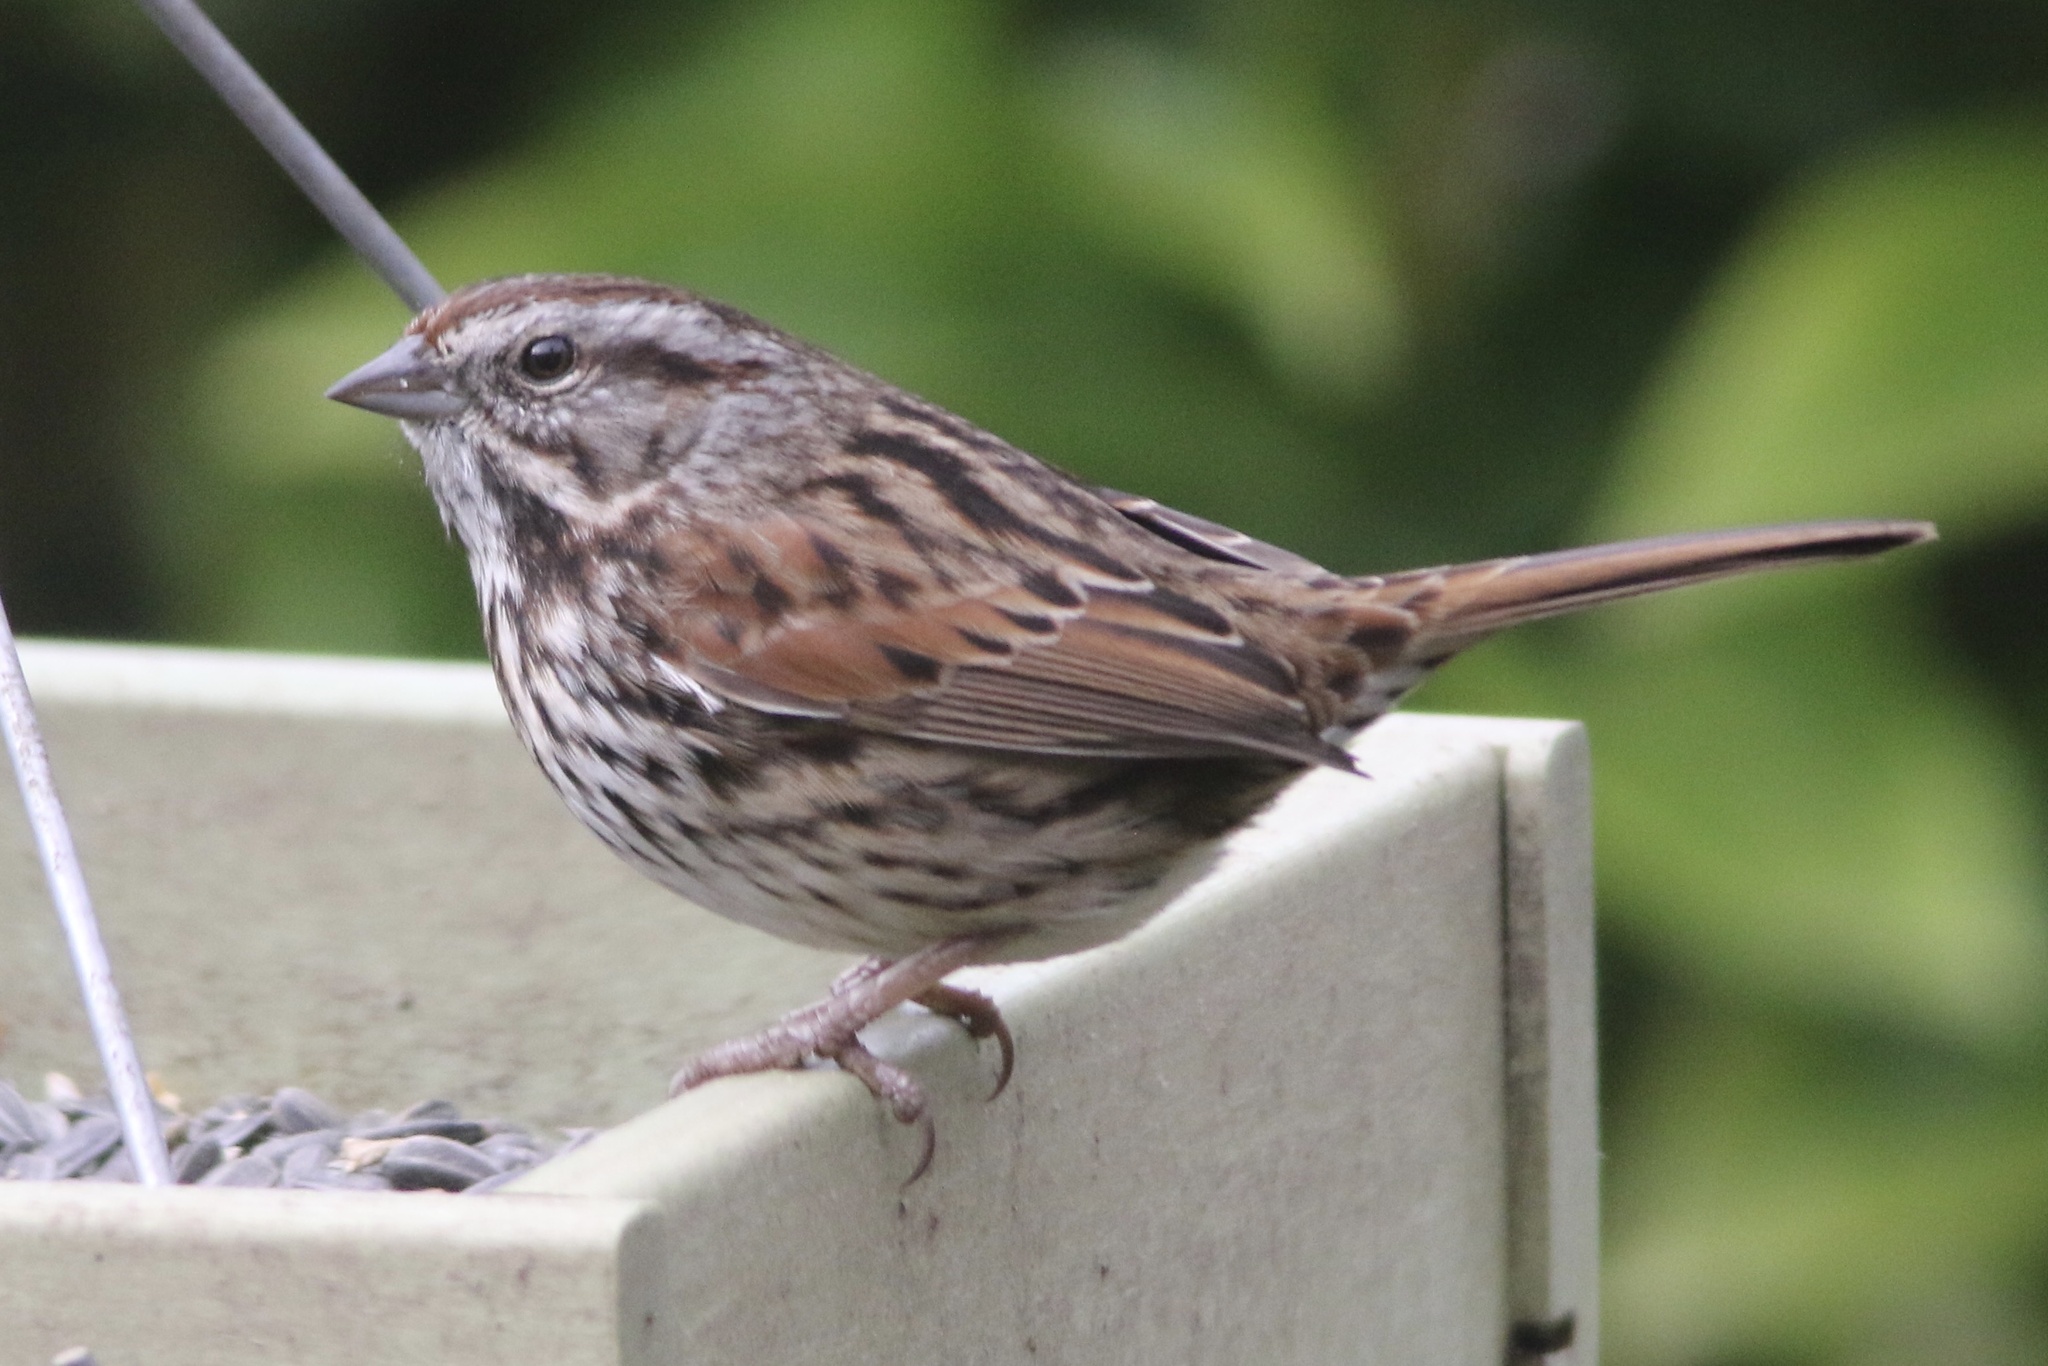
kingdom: Animalia
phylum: Chordata
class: Aves
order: Passeriformes
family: Passerellidae
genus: Melospiza
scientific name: Melospiza melodia
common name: Song sparrow
